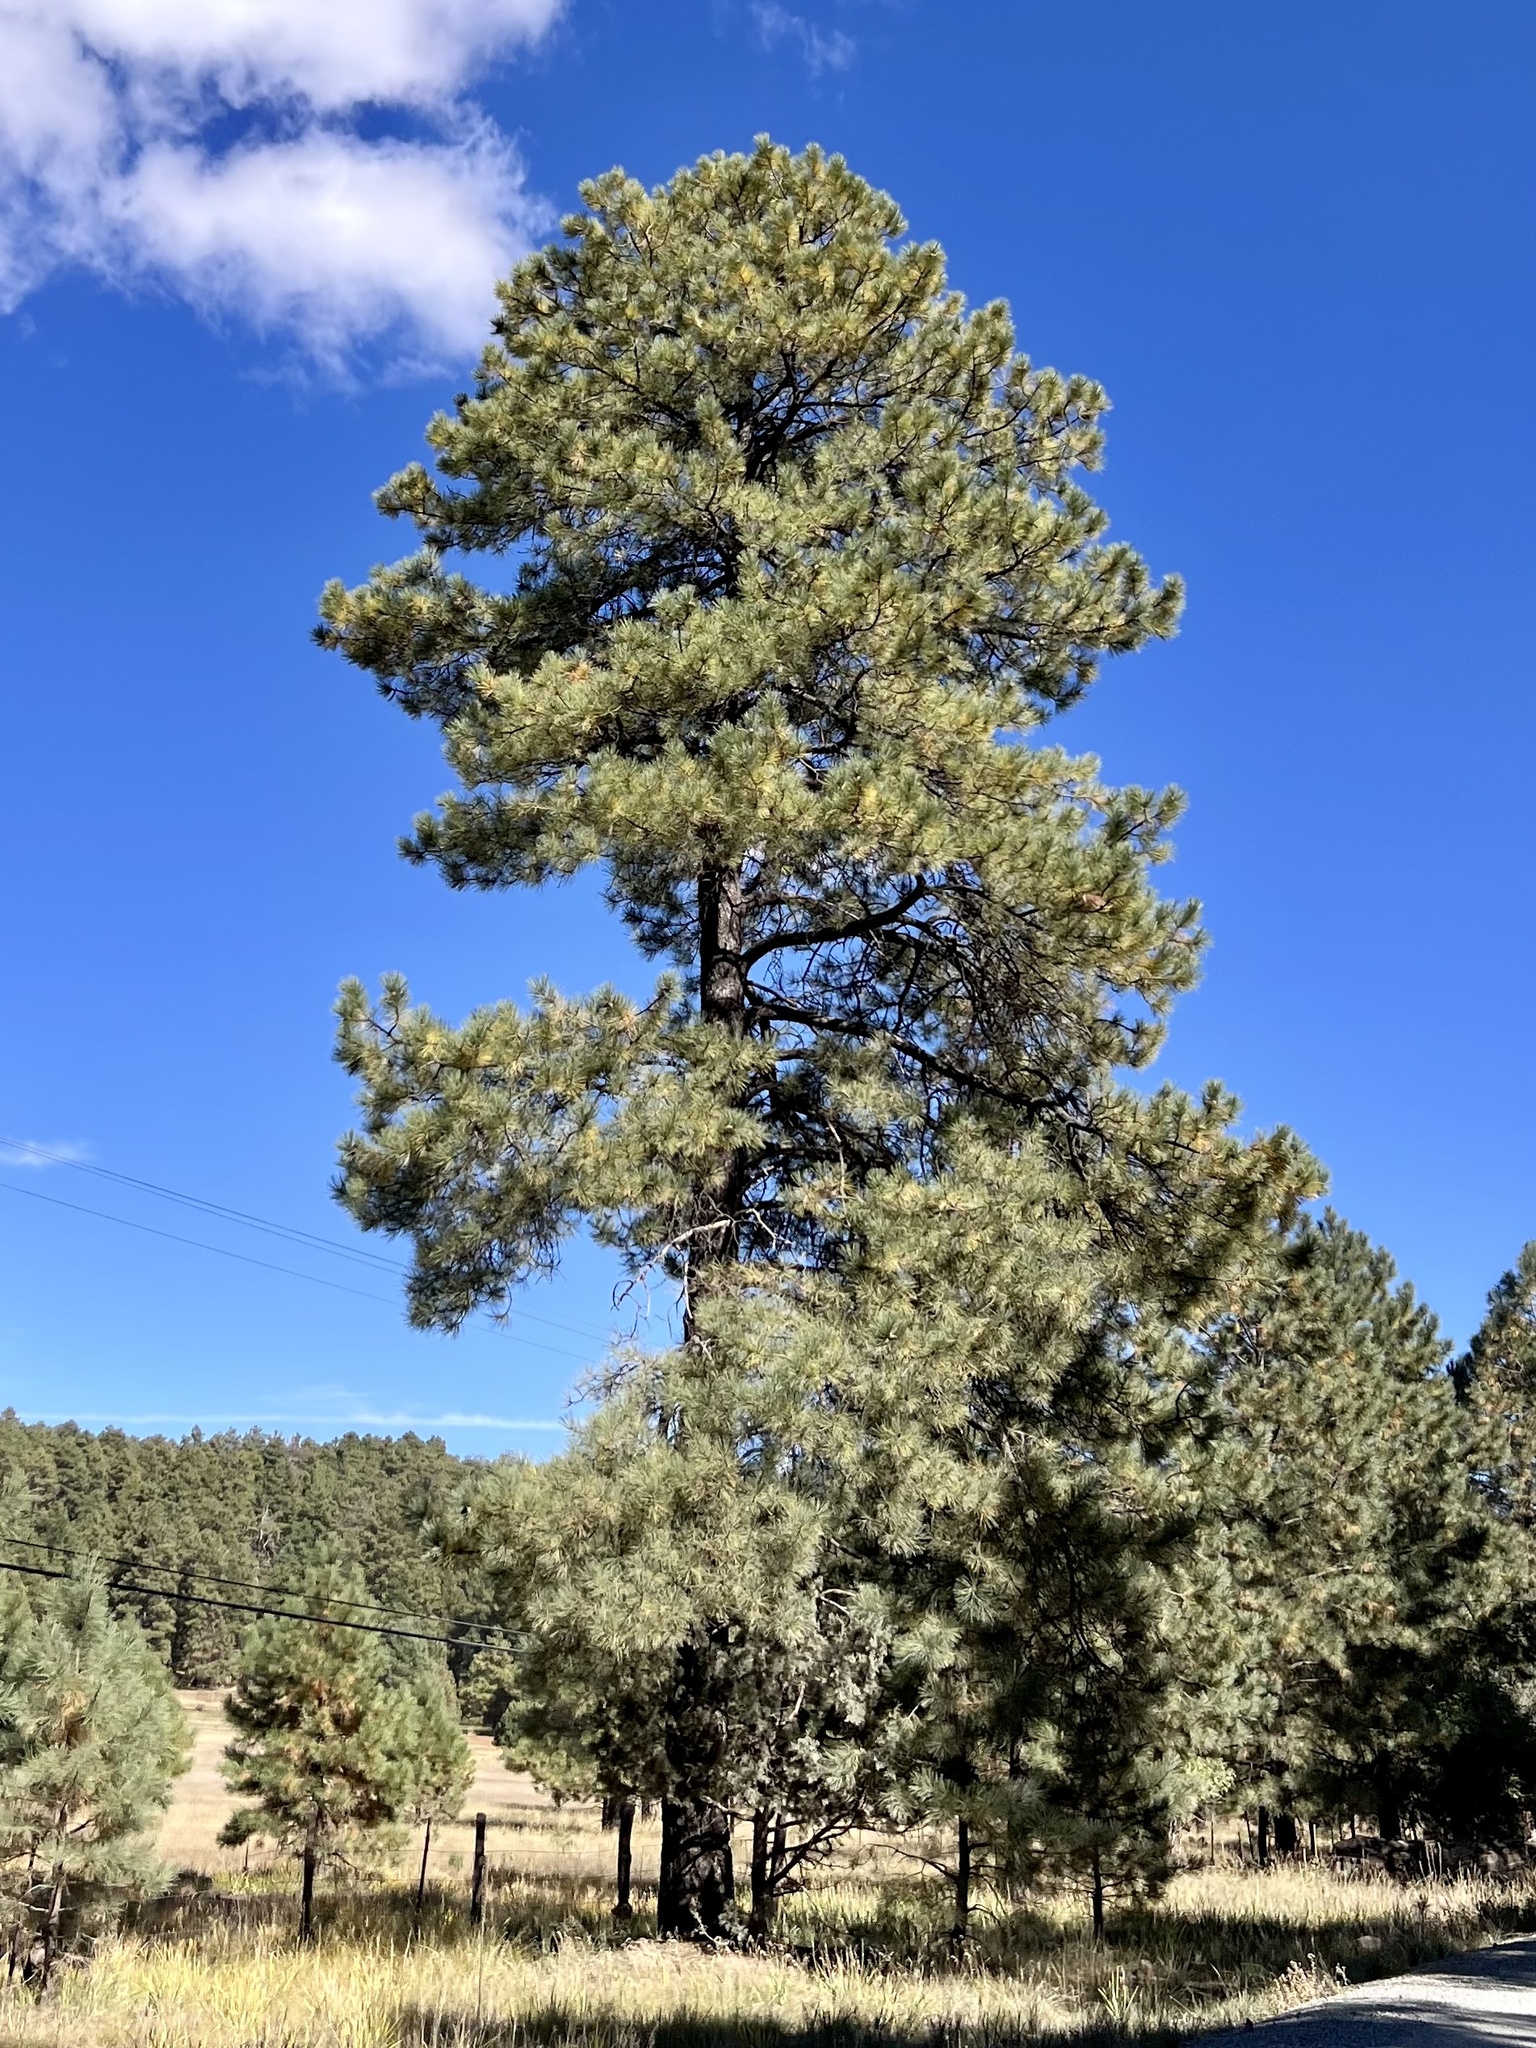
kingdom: Plantae
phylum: Tracheophyta
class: Pinopsida
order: Pinales
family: Pinaceae
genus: Pinus
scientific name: Pinus ponderosa
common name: Western yellow-pine
